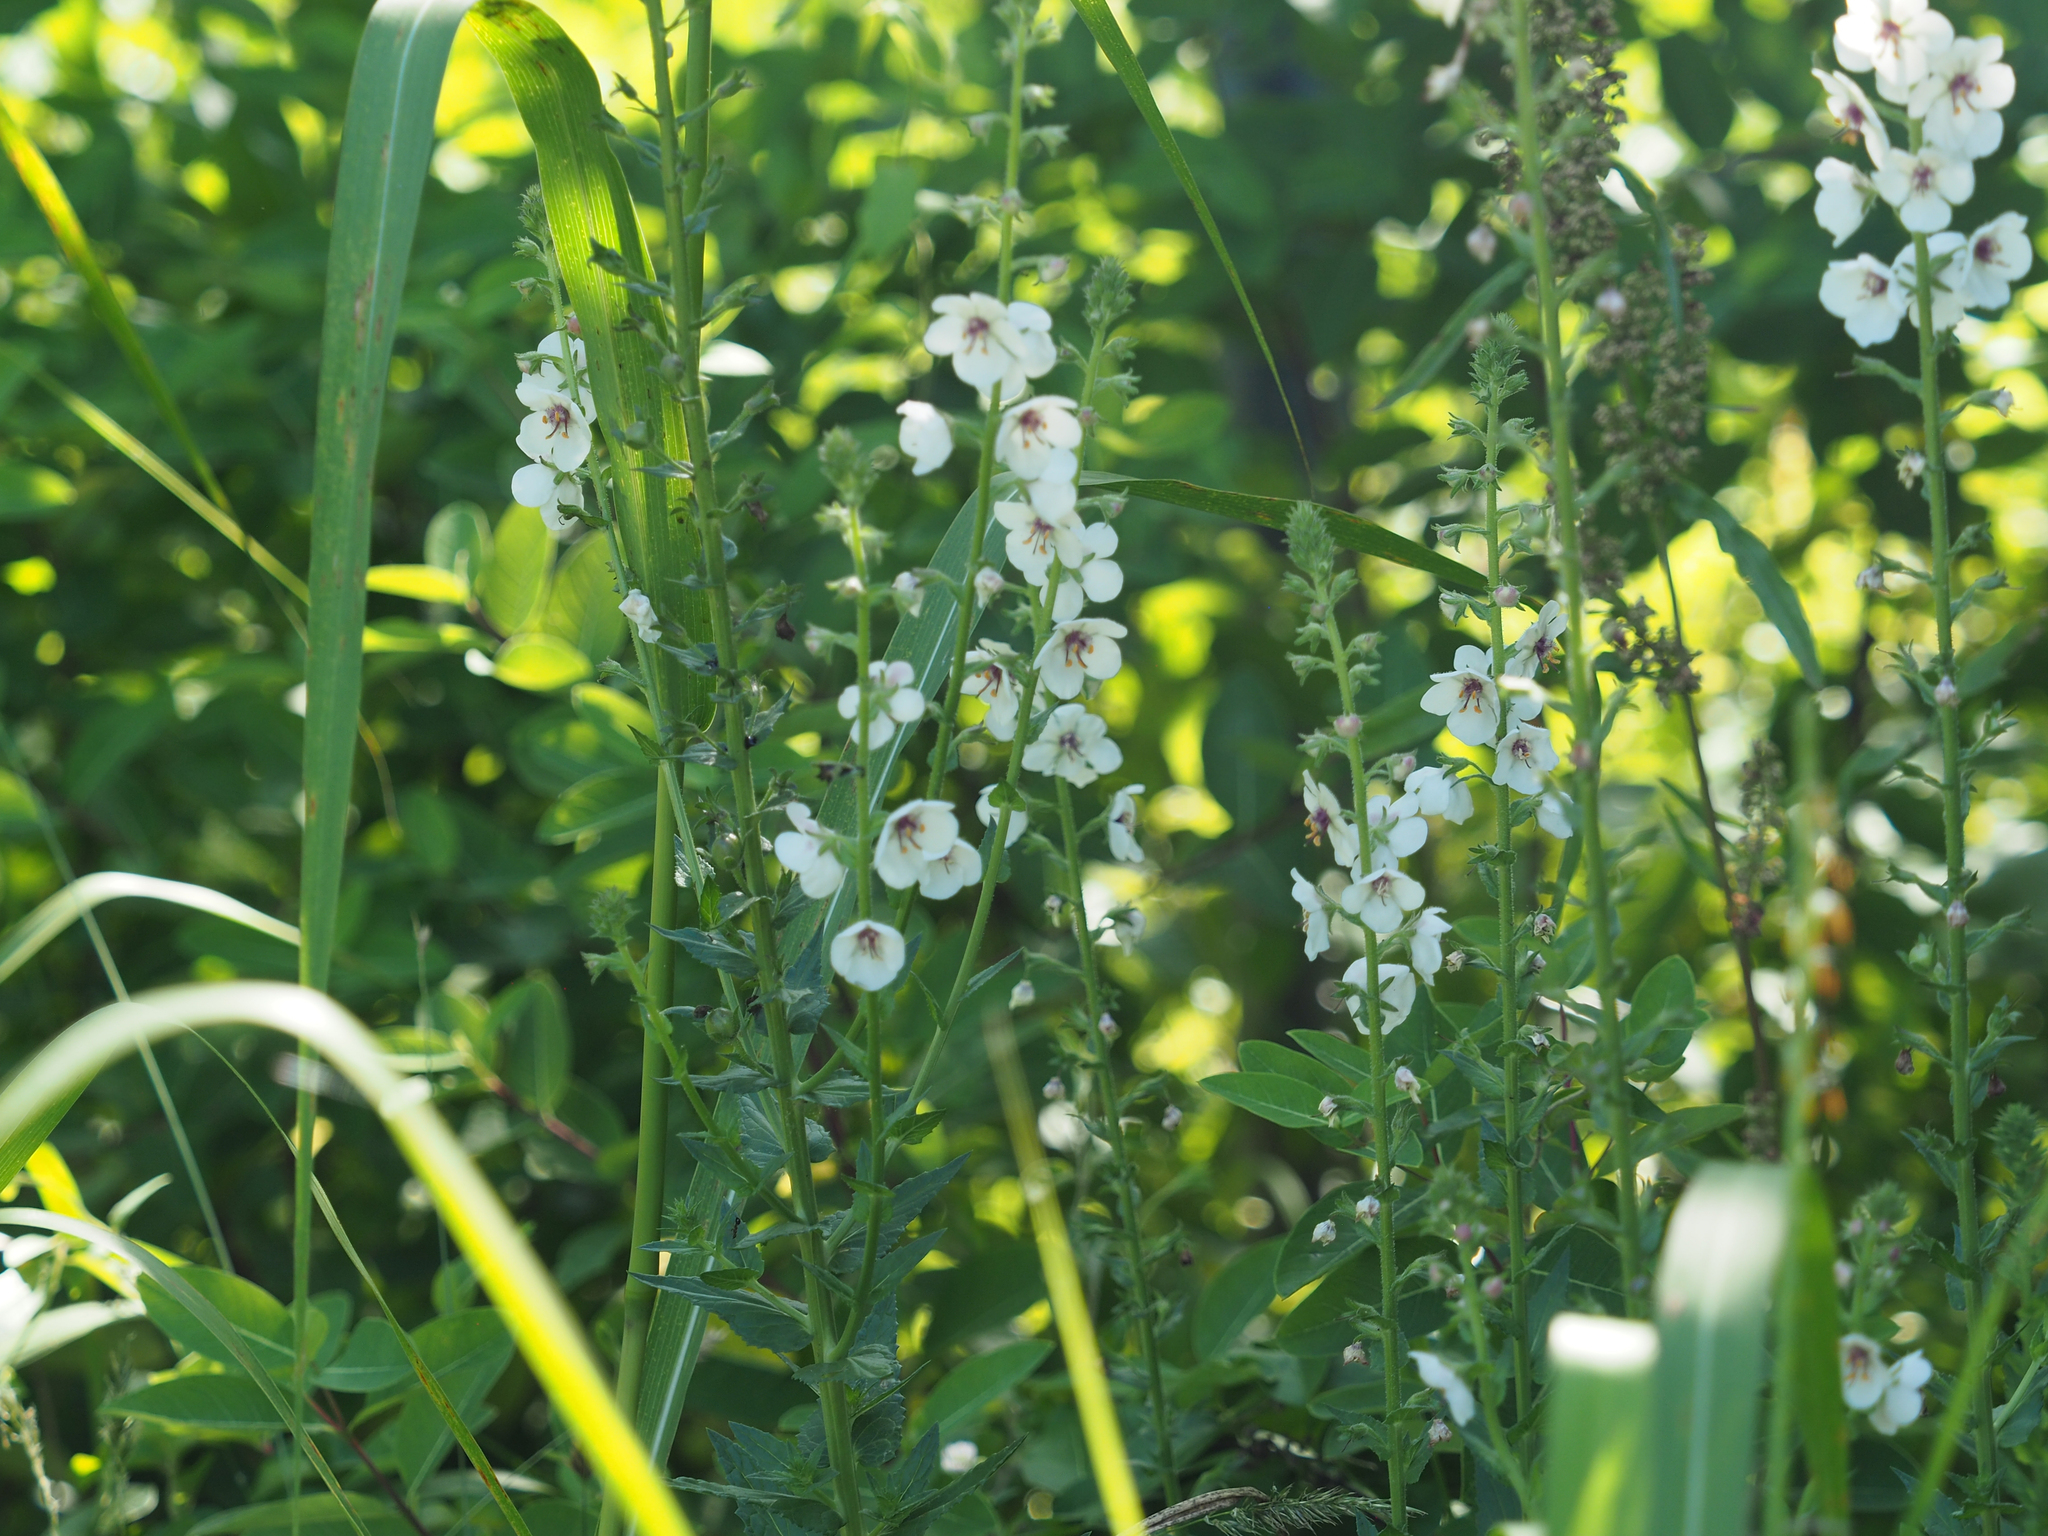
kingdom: Plantae
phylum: Tracheophyta
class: Magnoliopsida
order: Lamiales
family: Scrophulariaceae
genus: Verbascum
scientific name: Verbascum blattaria
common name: Moth mullein
